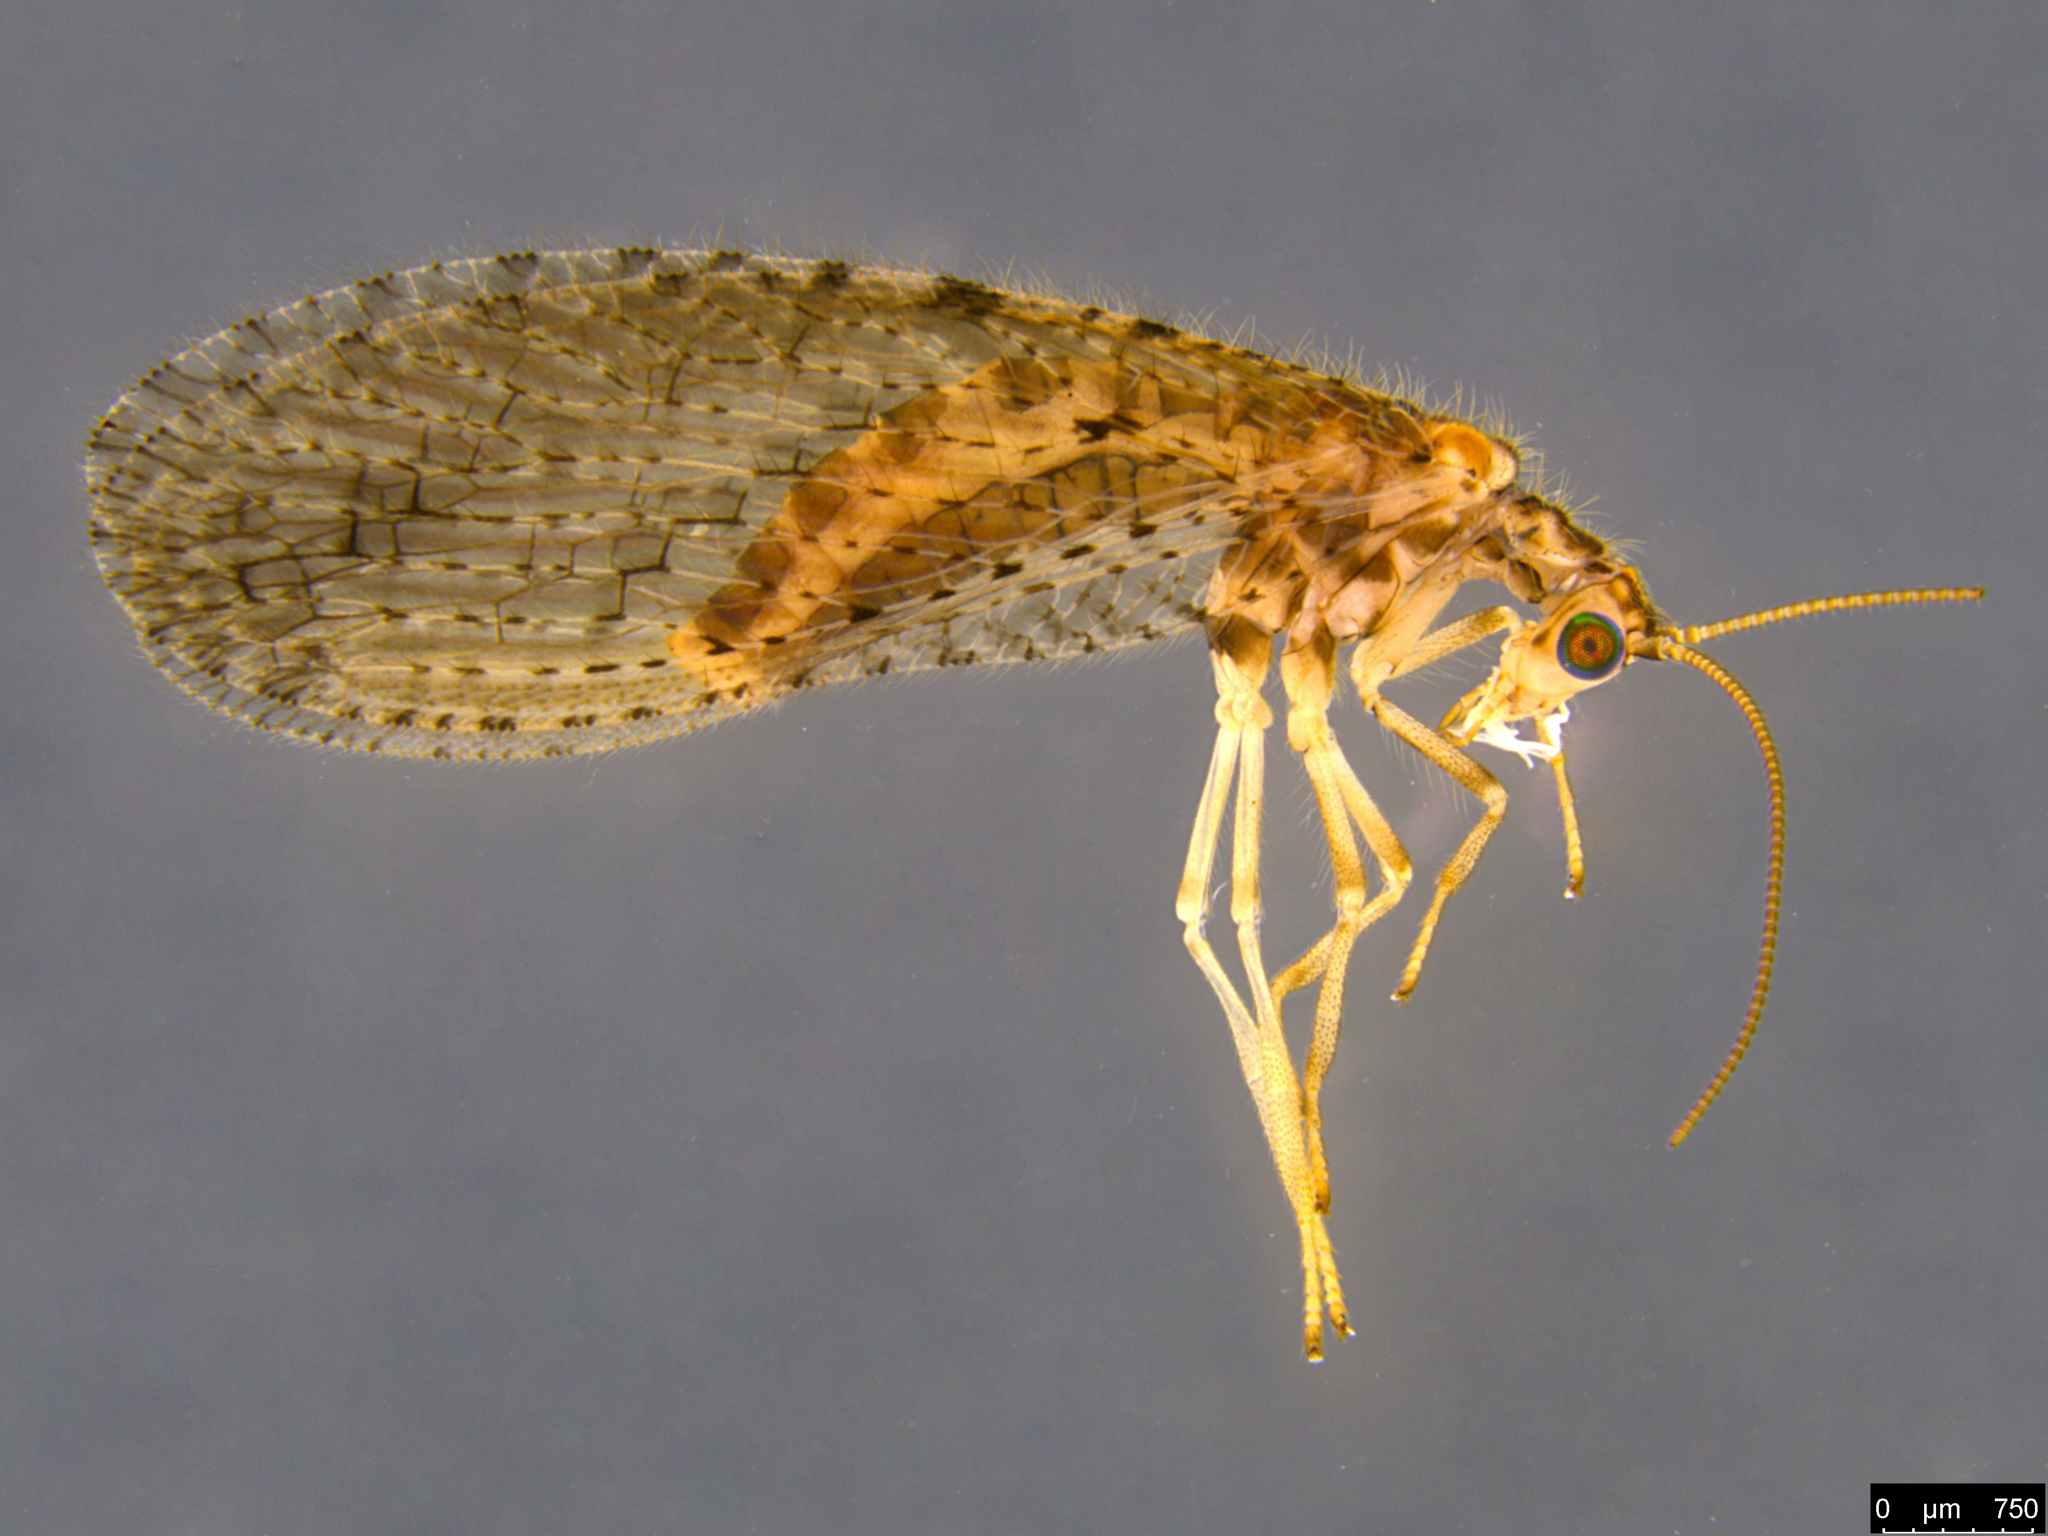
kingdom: Animalia
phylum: Arthropoda
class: Insecta
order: Neuroptera
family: Hemerobiidae
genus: Micromus
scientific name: Micromus tasmaniae
